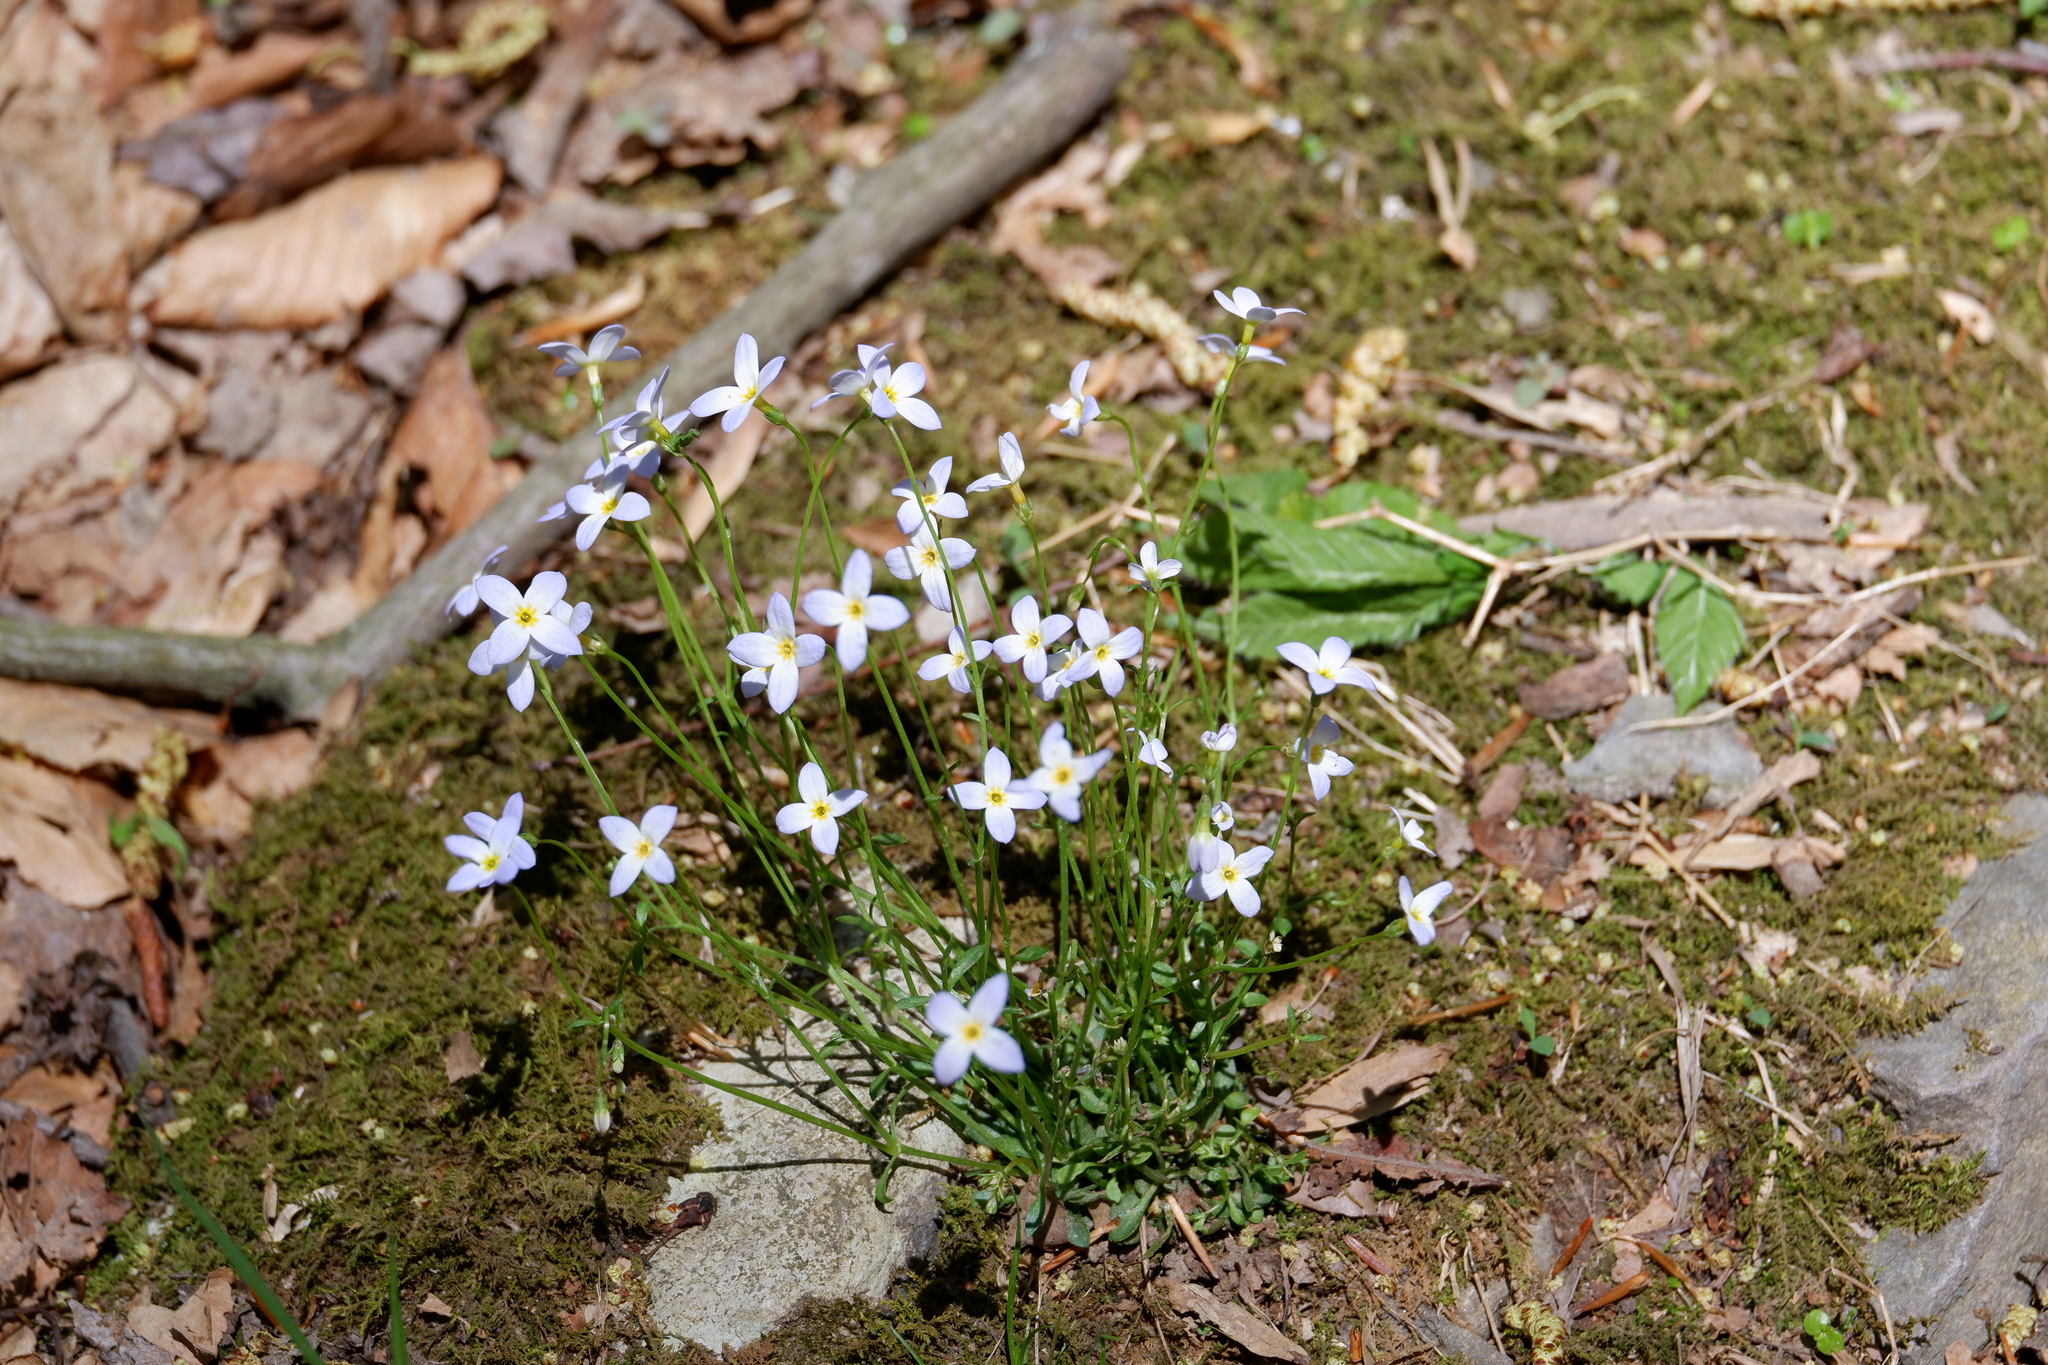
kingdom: Plantae
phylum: Tracheophyta
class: Magnoliopsida
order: Gentianales
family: Rubiaceae
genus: Houstonia
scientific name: Houstonia caerulea
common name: Bluets
